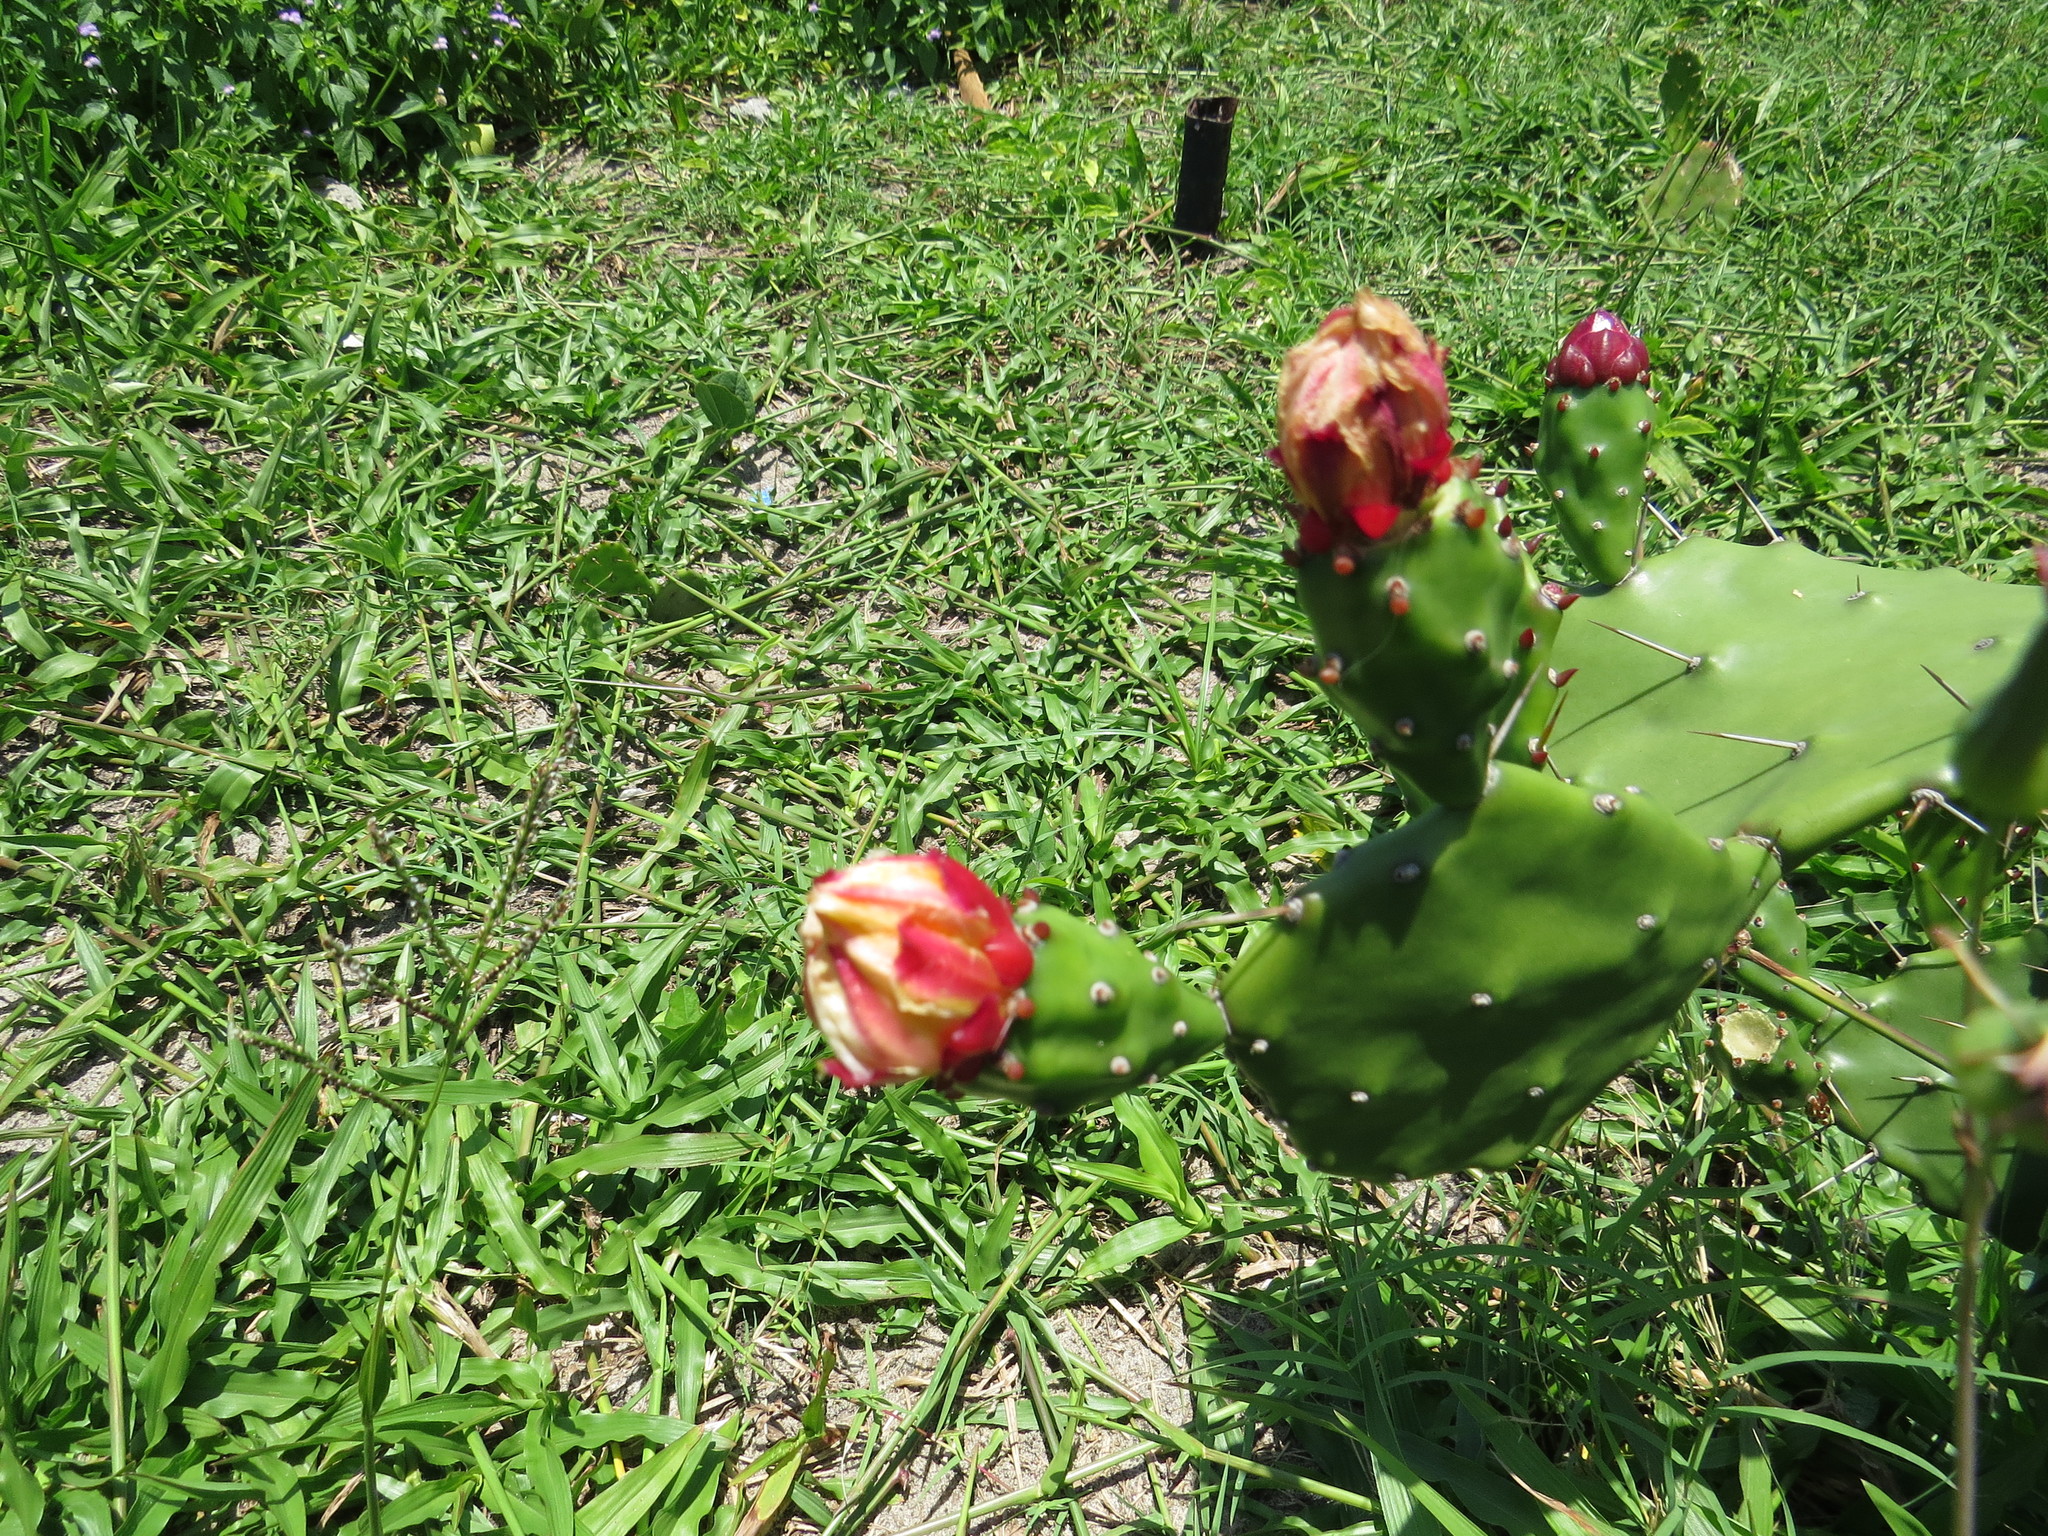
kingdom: Plantae
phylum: Tracheophyta
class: Magnoliopsida
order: Caryophyllales
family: Cactaceae
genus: Opuntia
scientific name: Opuntia monacantha
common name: Common pricklypear
